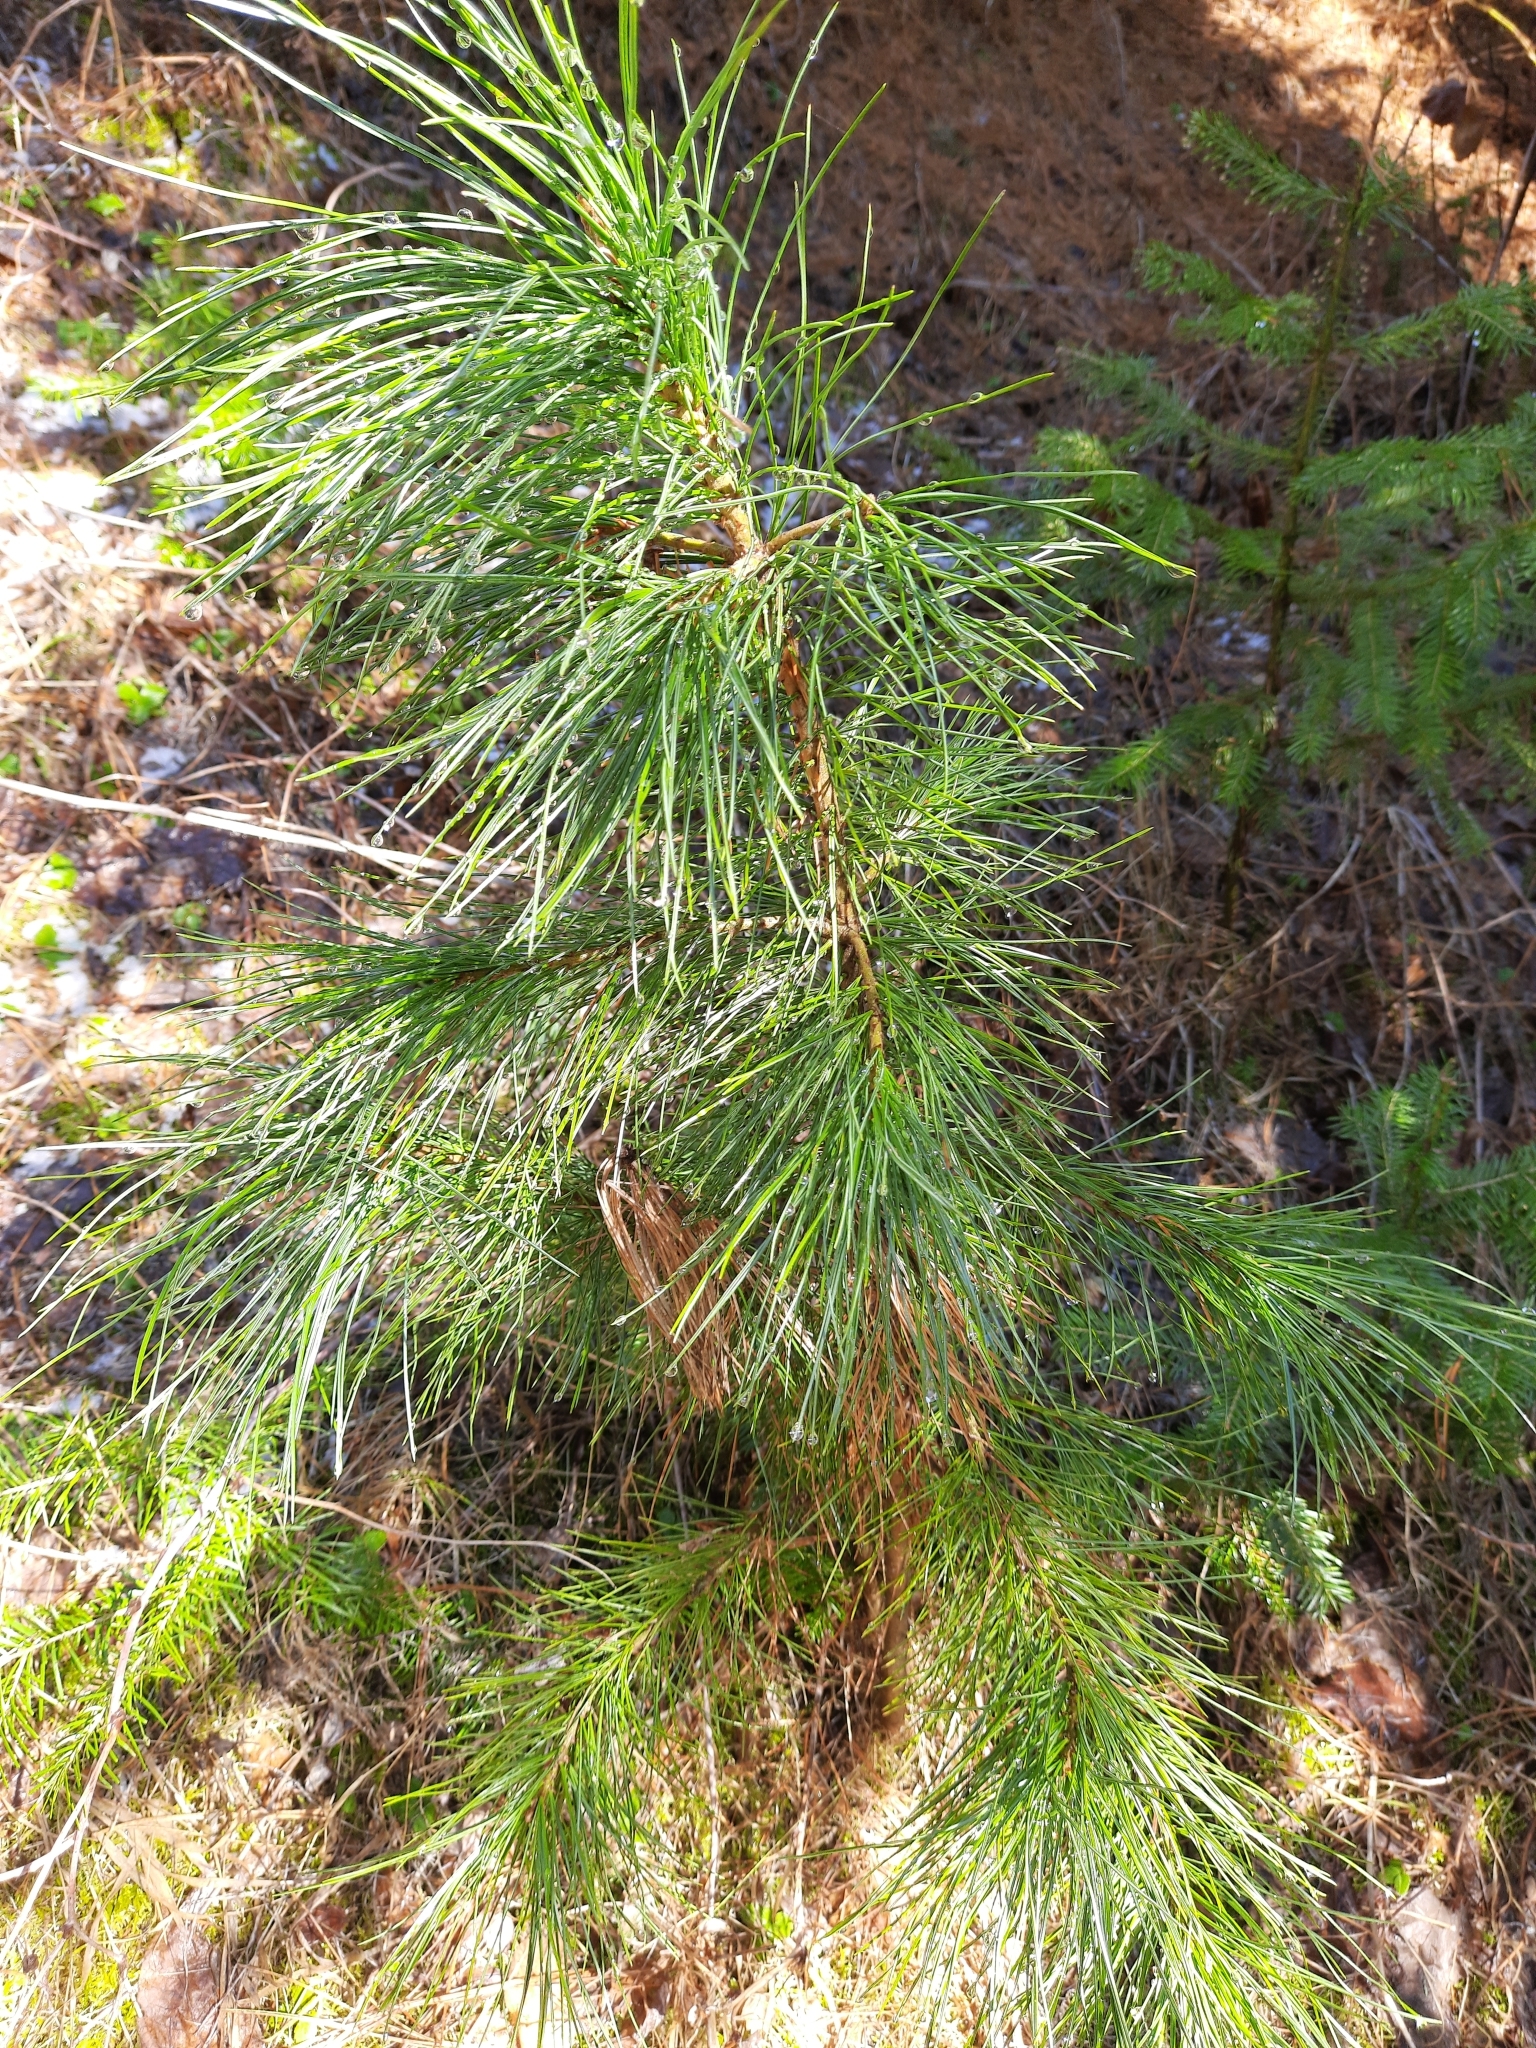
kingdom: Plantae
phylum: Tracheophyta
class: Pinopsida
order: Pinales
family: Pinaceae
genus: Pinus
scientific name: Pinus sibirica
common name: Siberian pine
